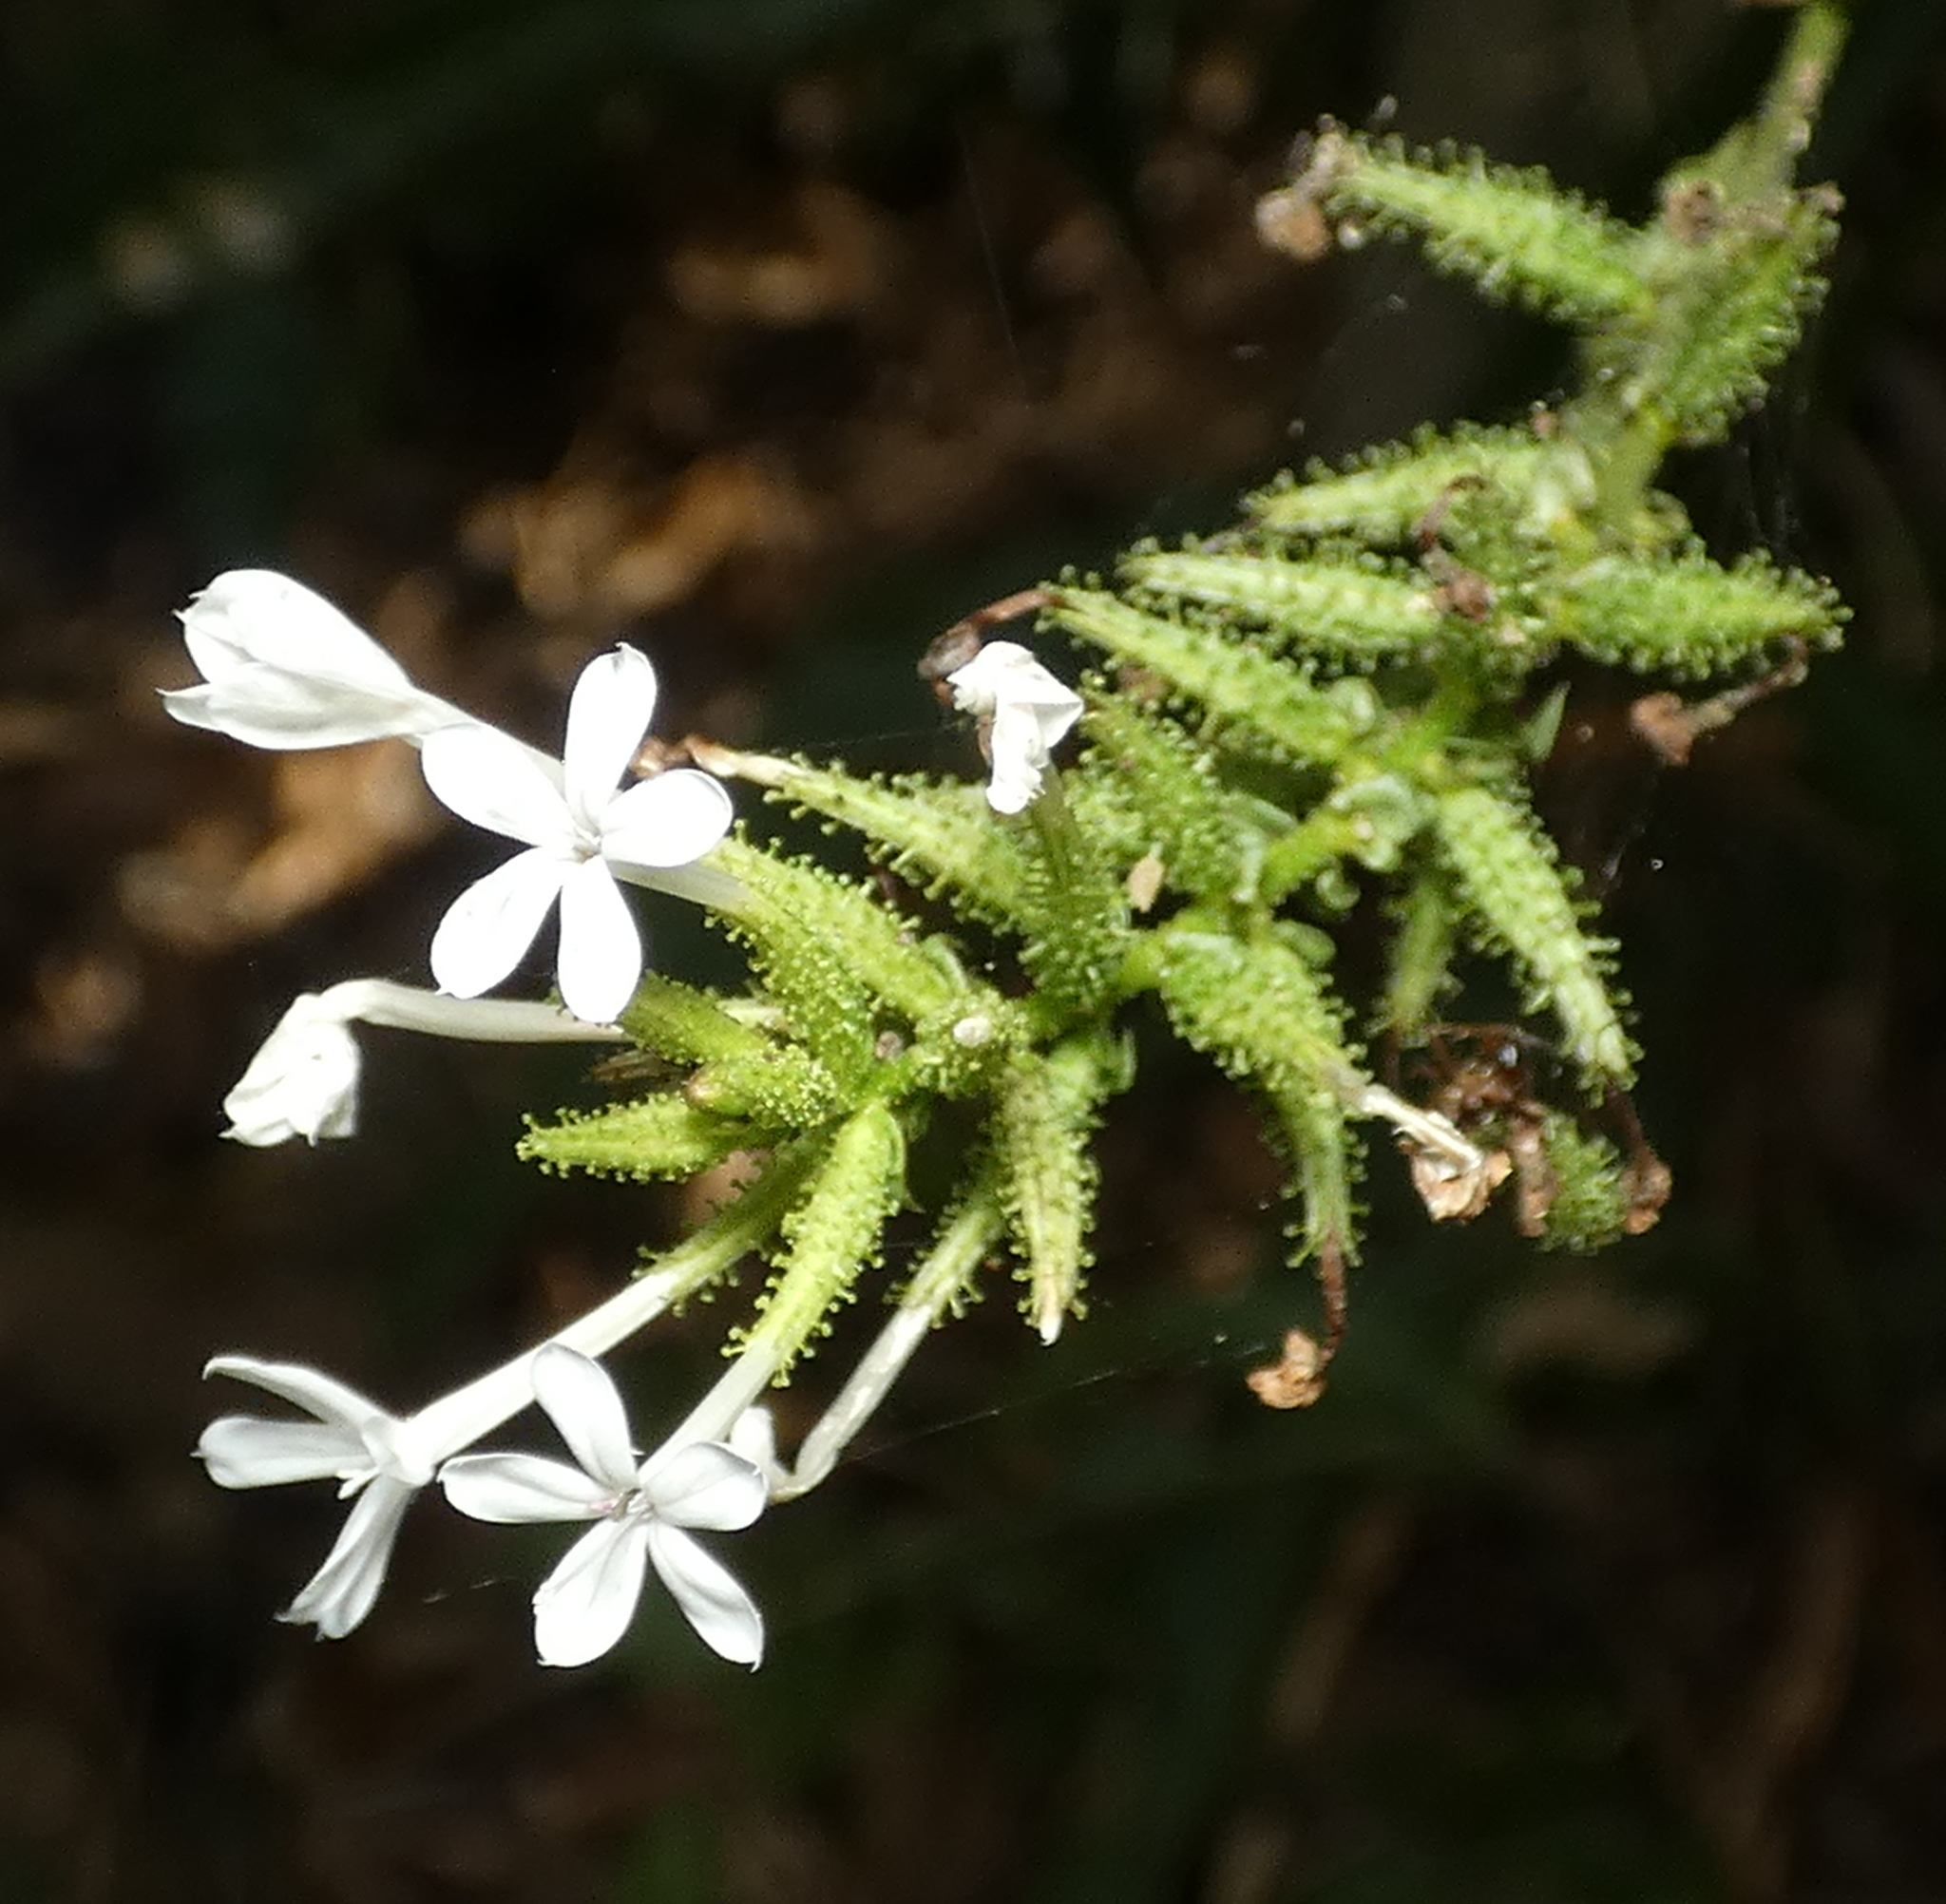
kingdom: Plantae
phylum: Tracheophyta
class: Magnoliopsida
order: Caryophyllales
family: Plumbaginaceae
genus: Plumbago
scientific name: Plumbago zeylanica
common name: Doctorbush
